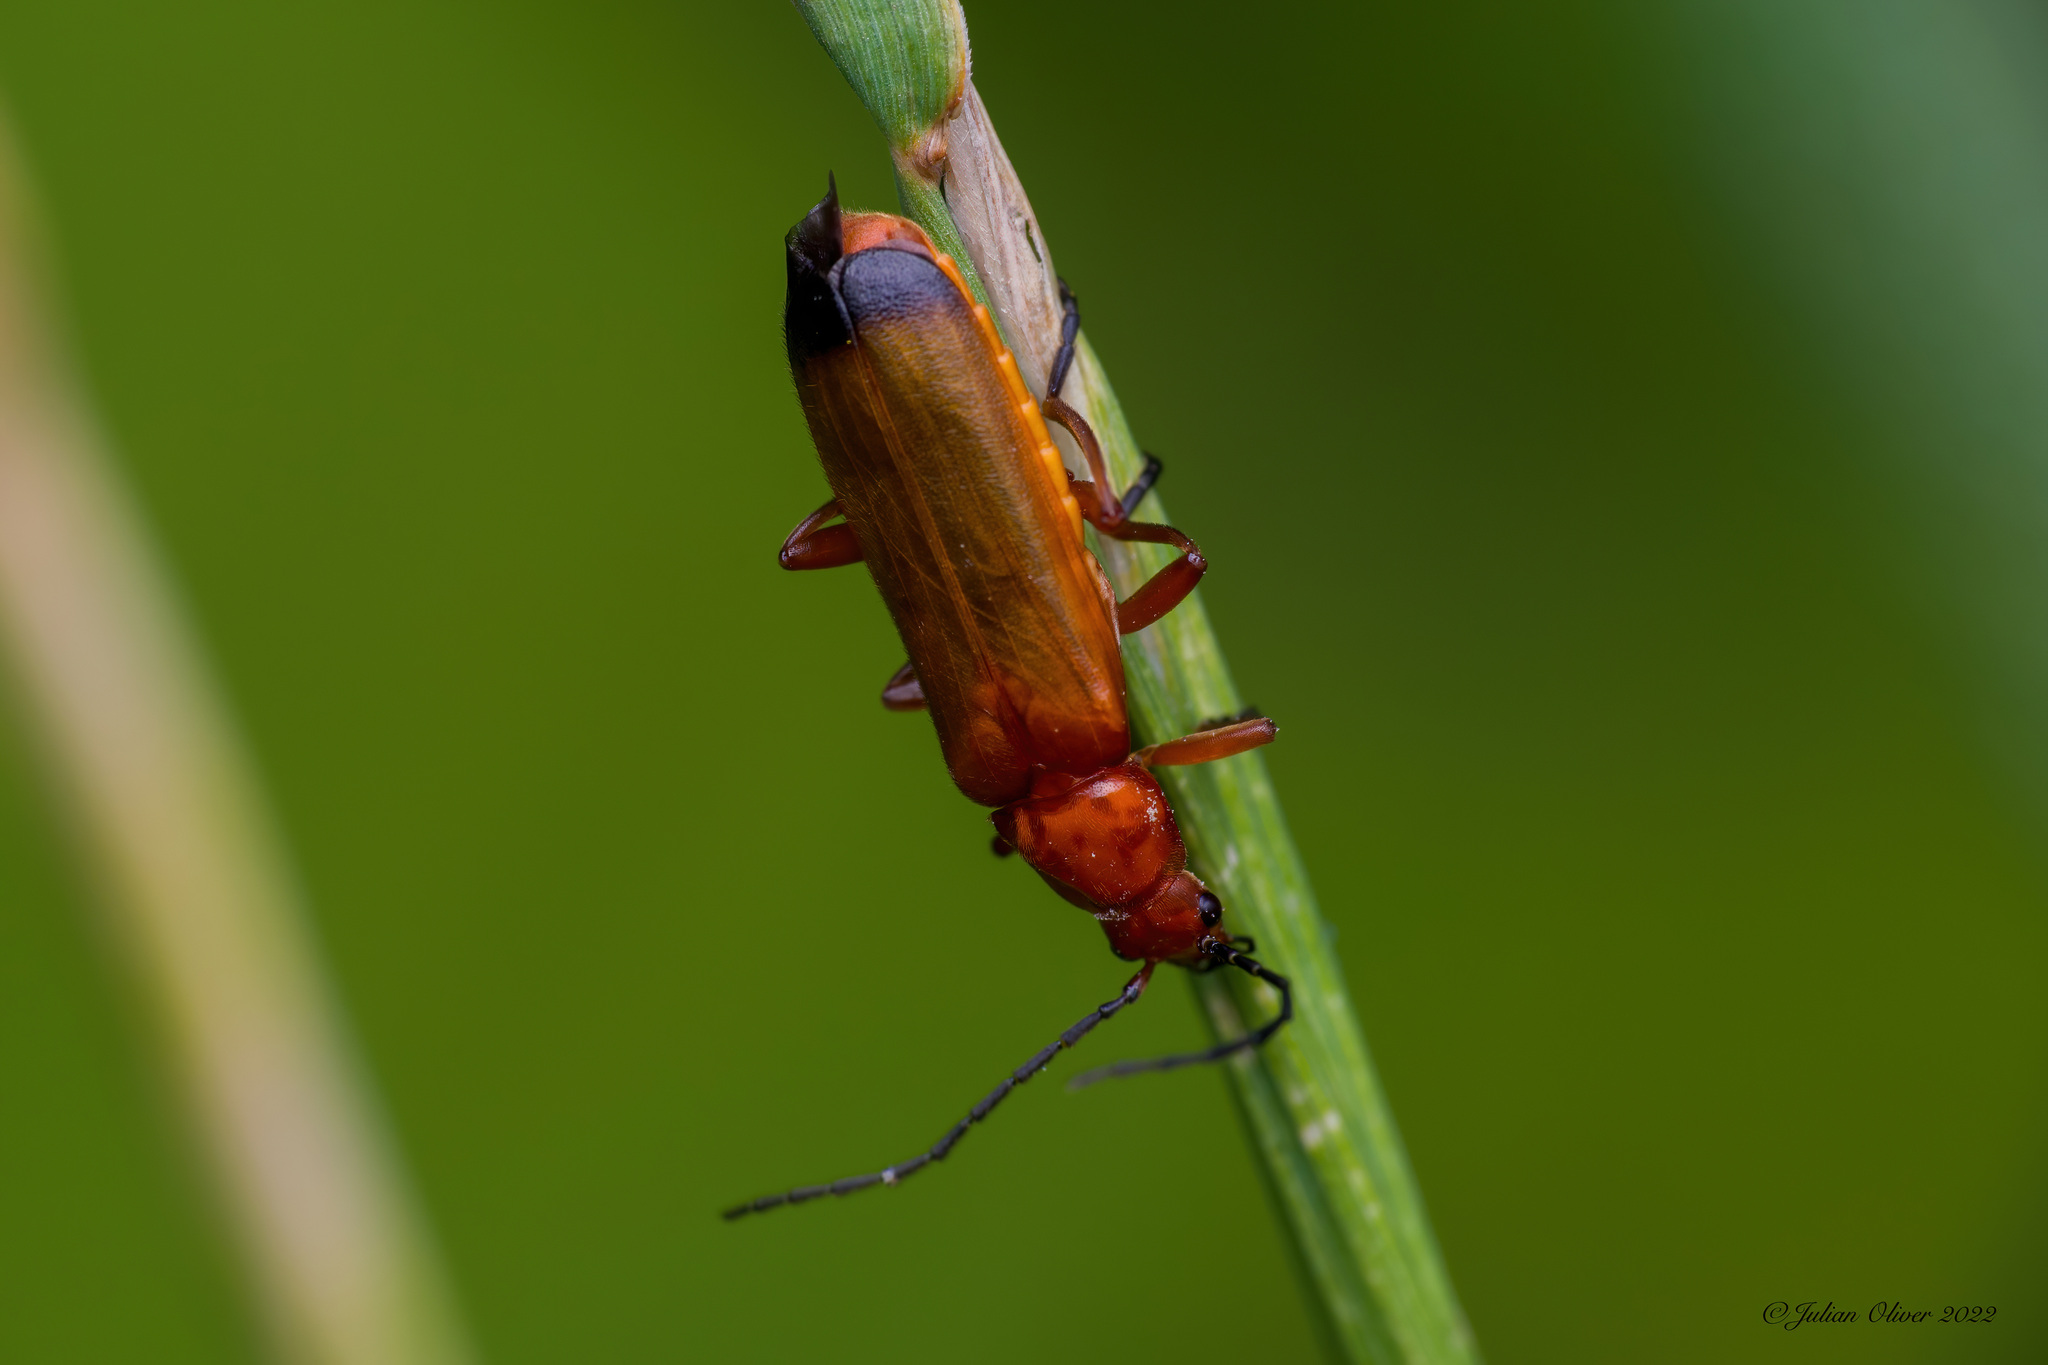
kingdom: Animalia
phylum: Arthropoda
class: Insecta
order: Coleoptera
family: Cantharidae
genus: Rhagonycha
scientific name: Rhagonycha fulva
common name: Common red soldier beetle
